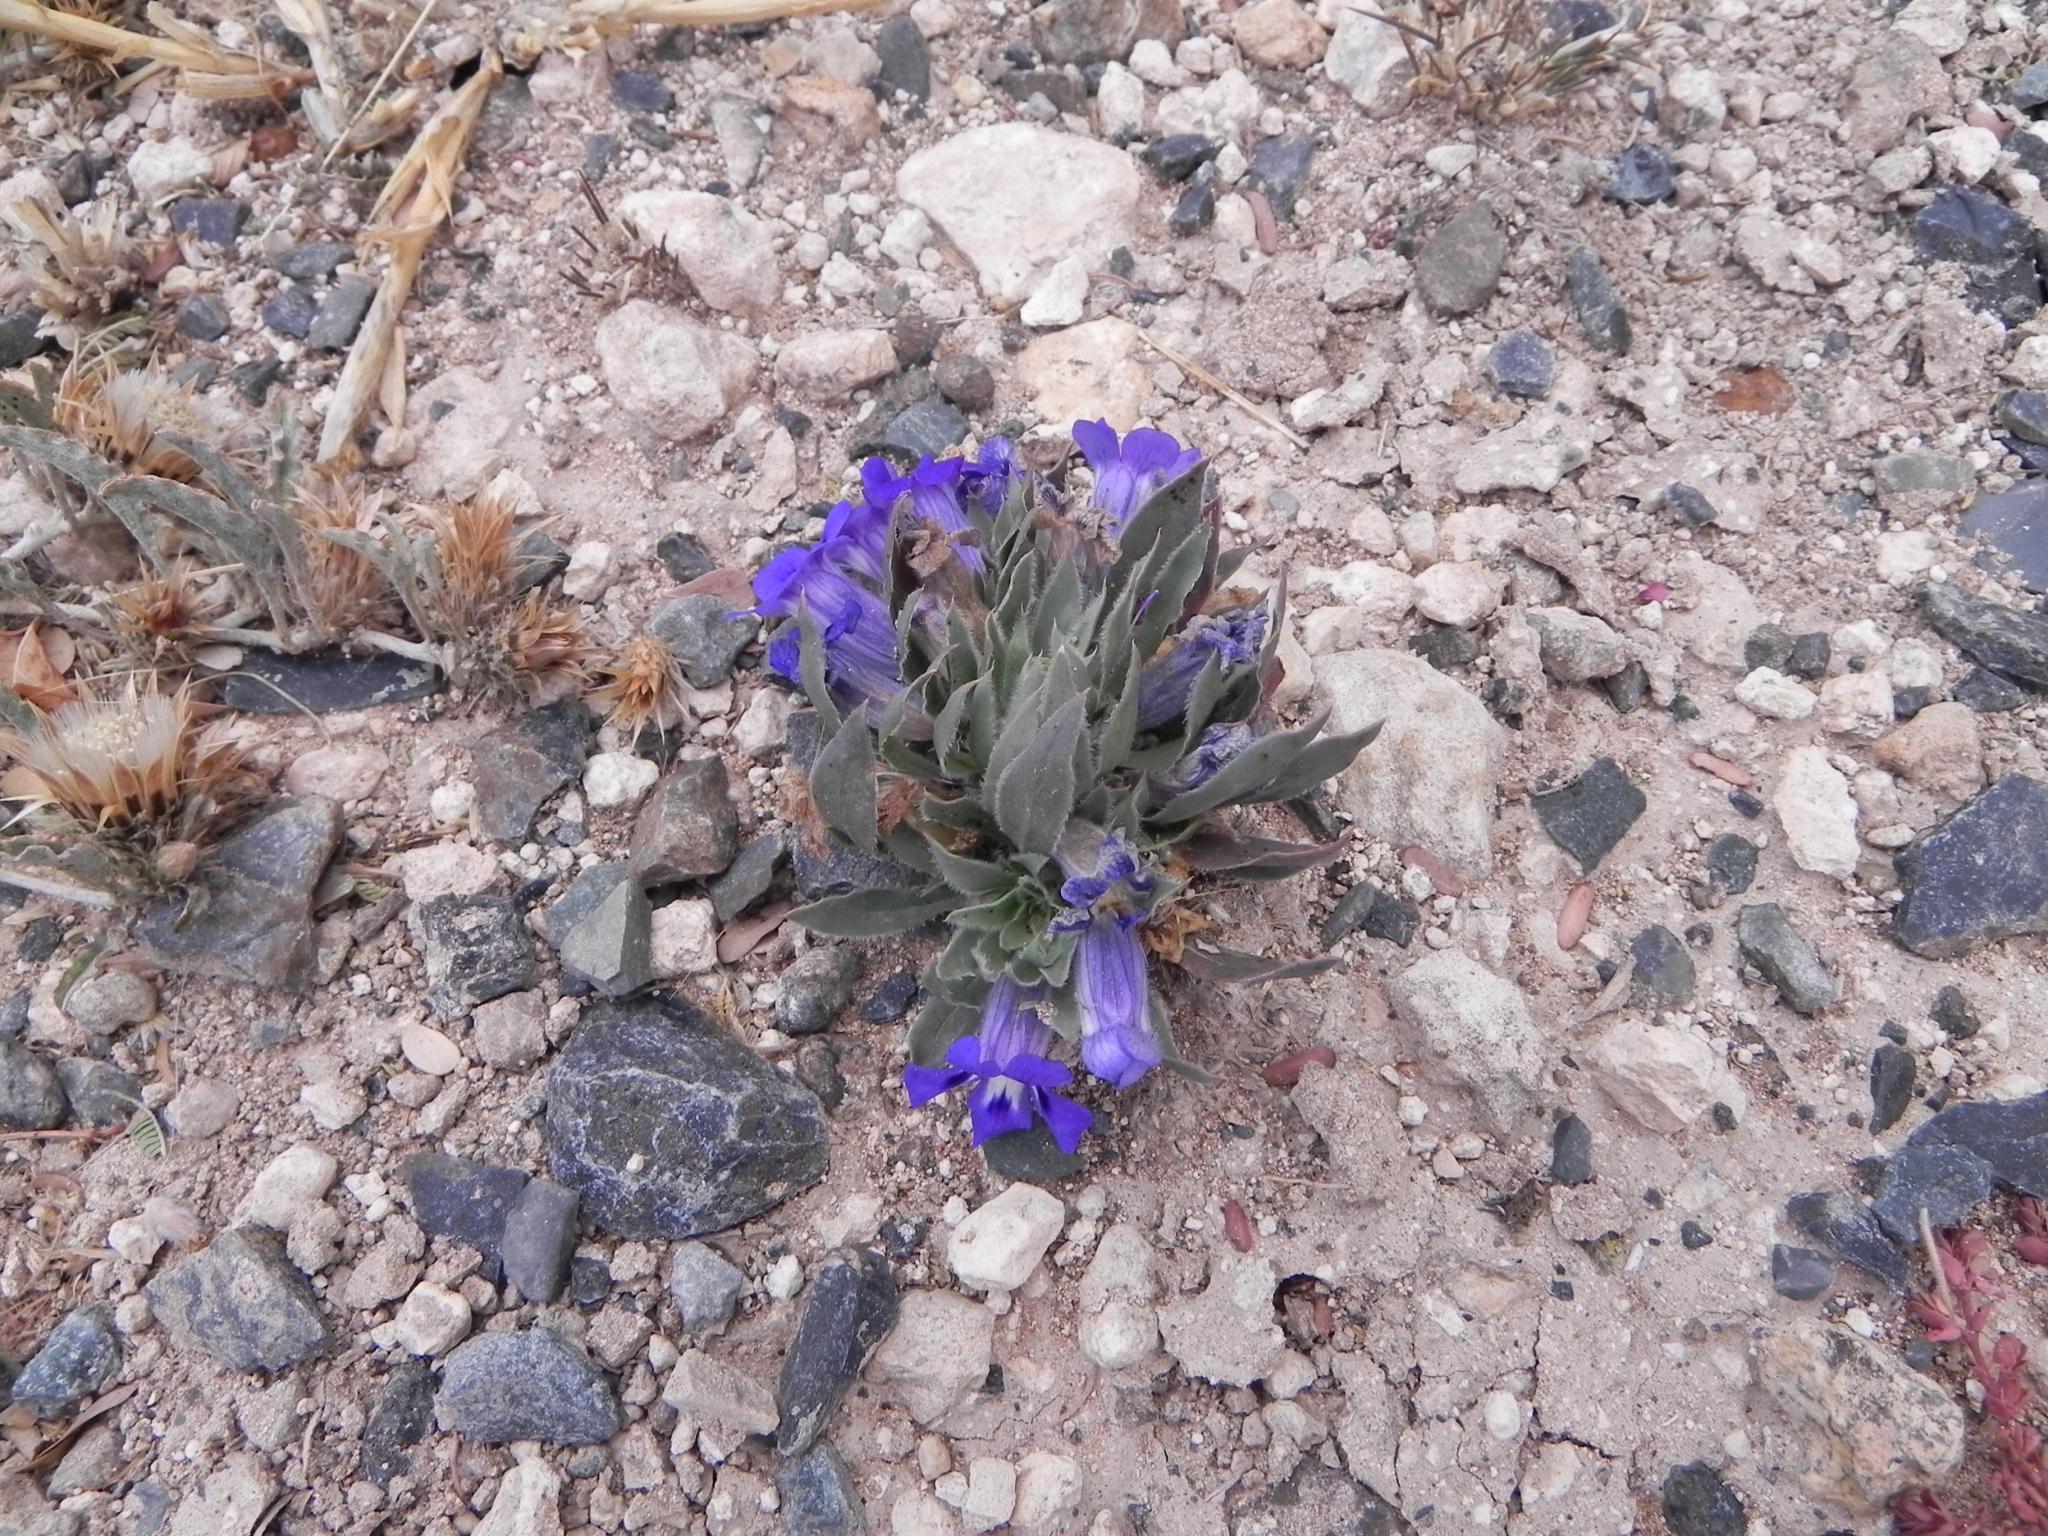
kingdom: Plantae
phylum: Tracheophyta
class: Magnoliopsida
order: Lamiales
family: Scrophulariaceae
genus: Aptosimum
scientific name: Aptosimum indivisum
